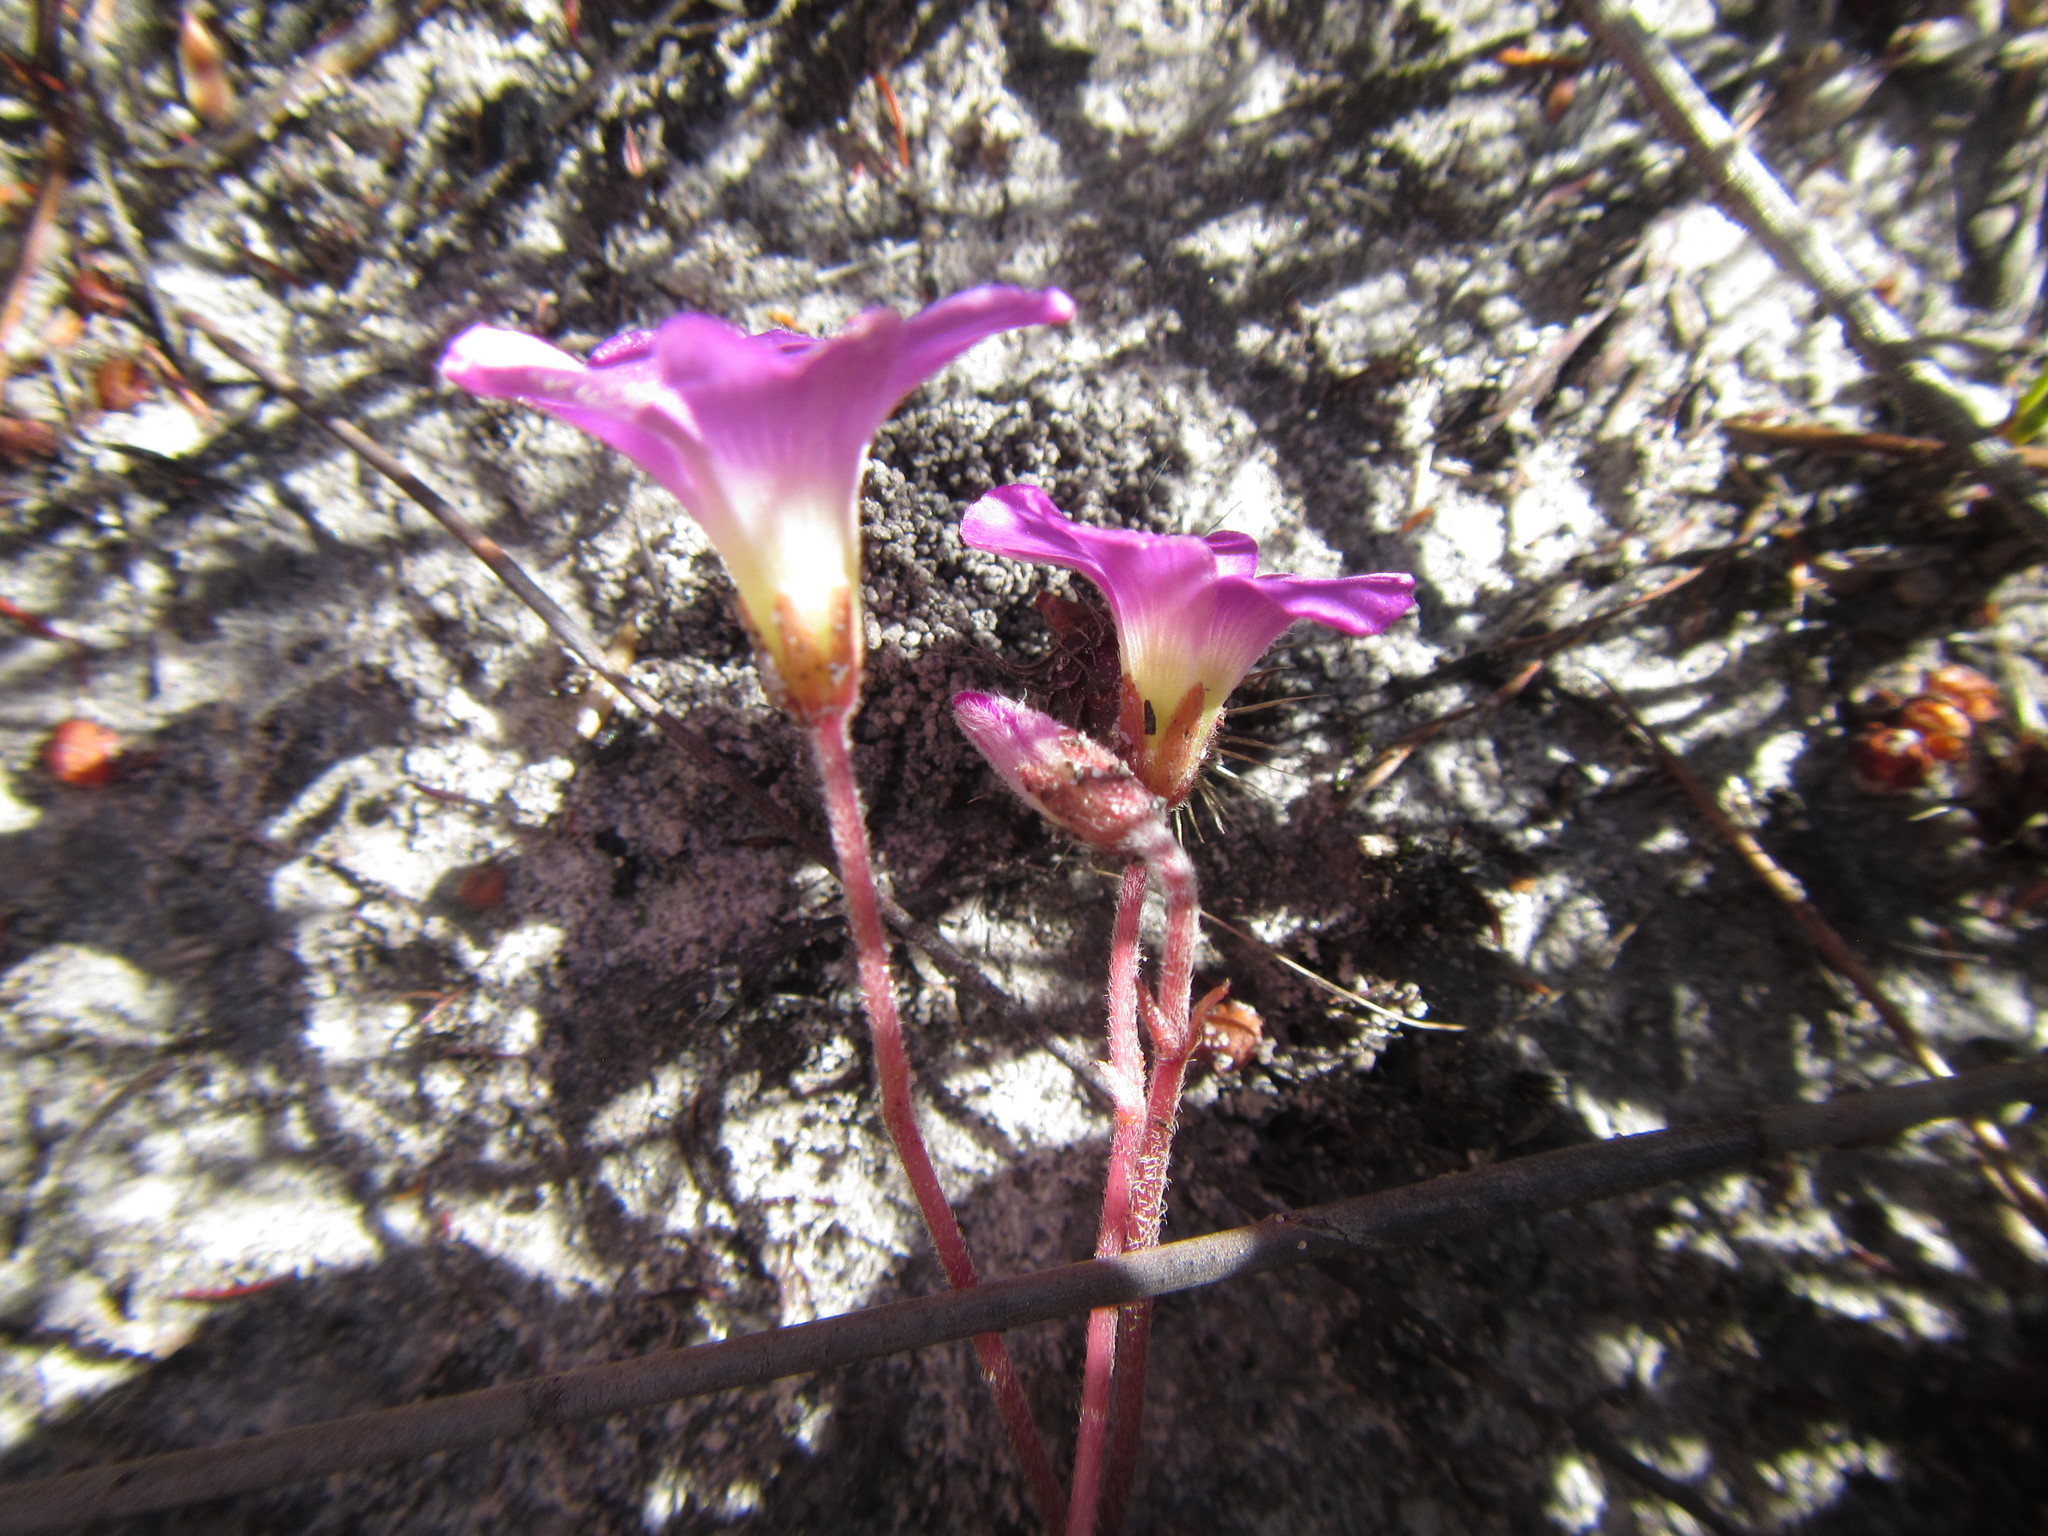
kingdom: Plantae
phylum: Tracheophyta
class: Magnoliopsida
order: Oxalidales
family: Oxalidaceae
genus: Oxalis
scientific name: Oxalis truncatula
